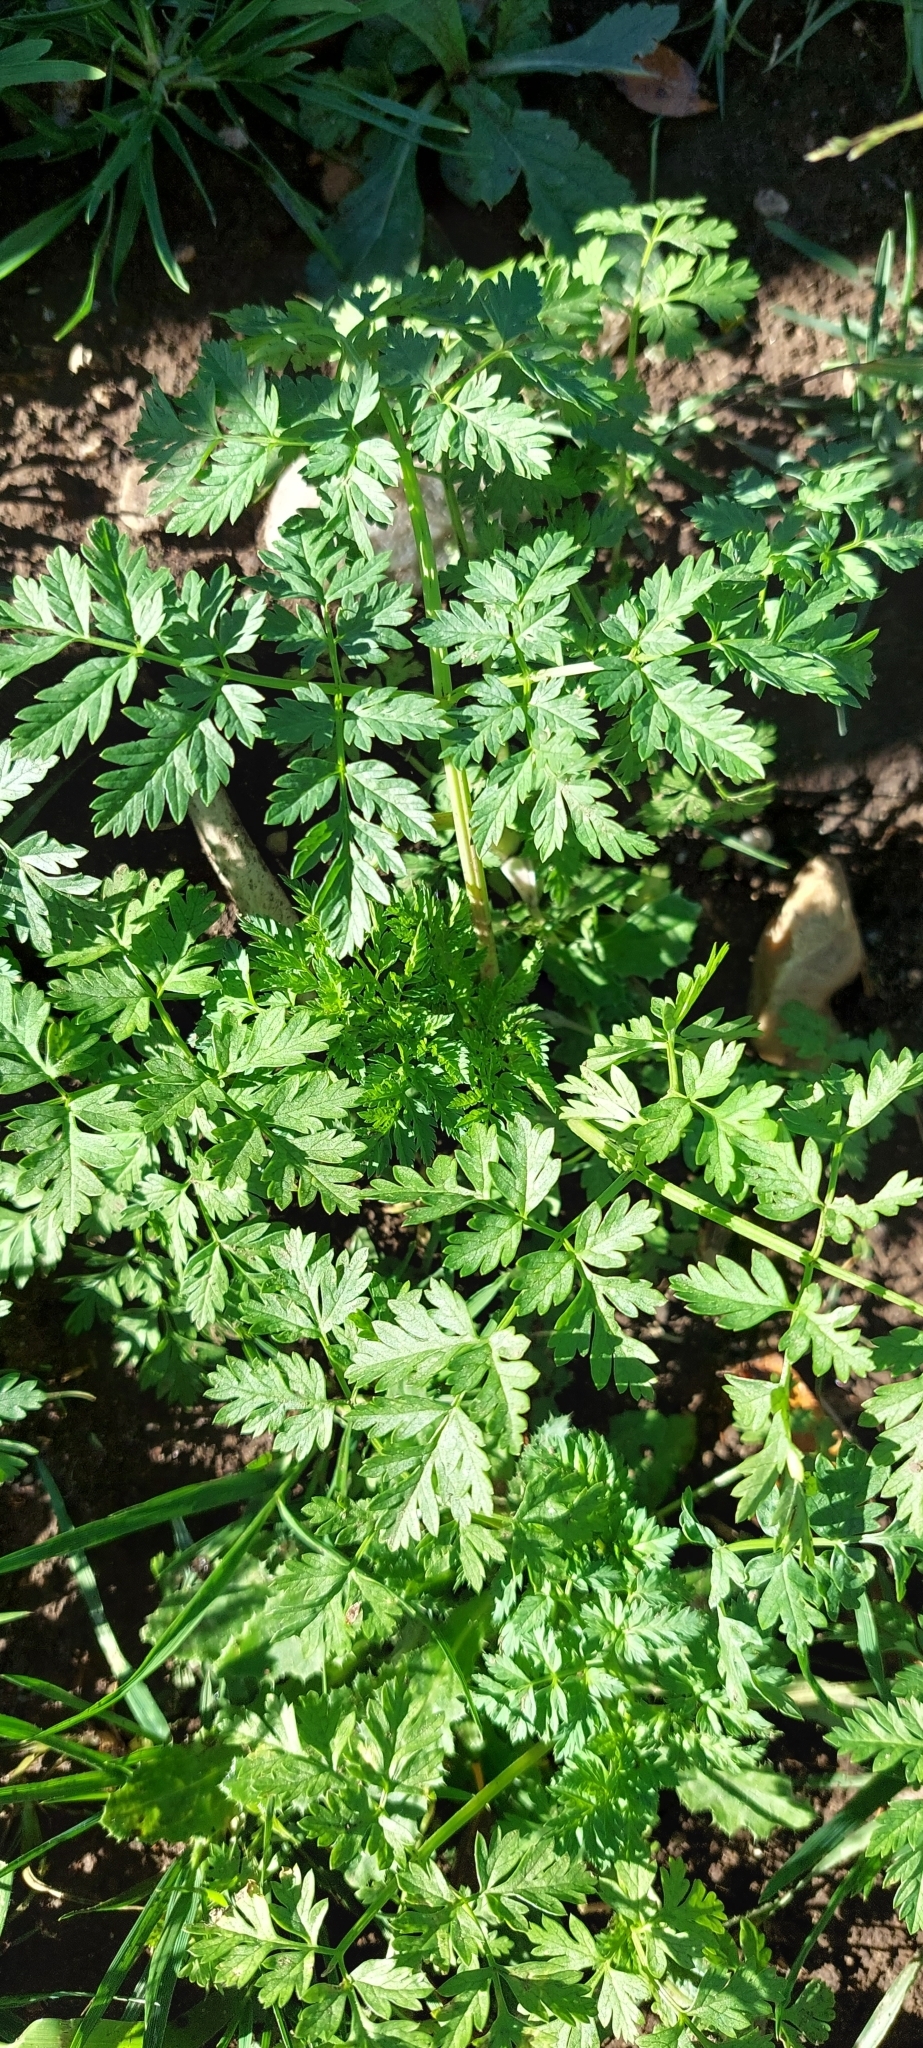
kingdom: Plantae
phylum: Tracheophyta
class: Magnoliopsida
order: Apiales
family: Apiaceae
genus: Conium
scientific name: Conium maculatum
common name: Hemlock
